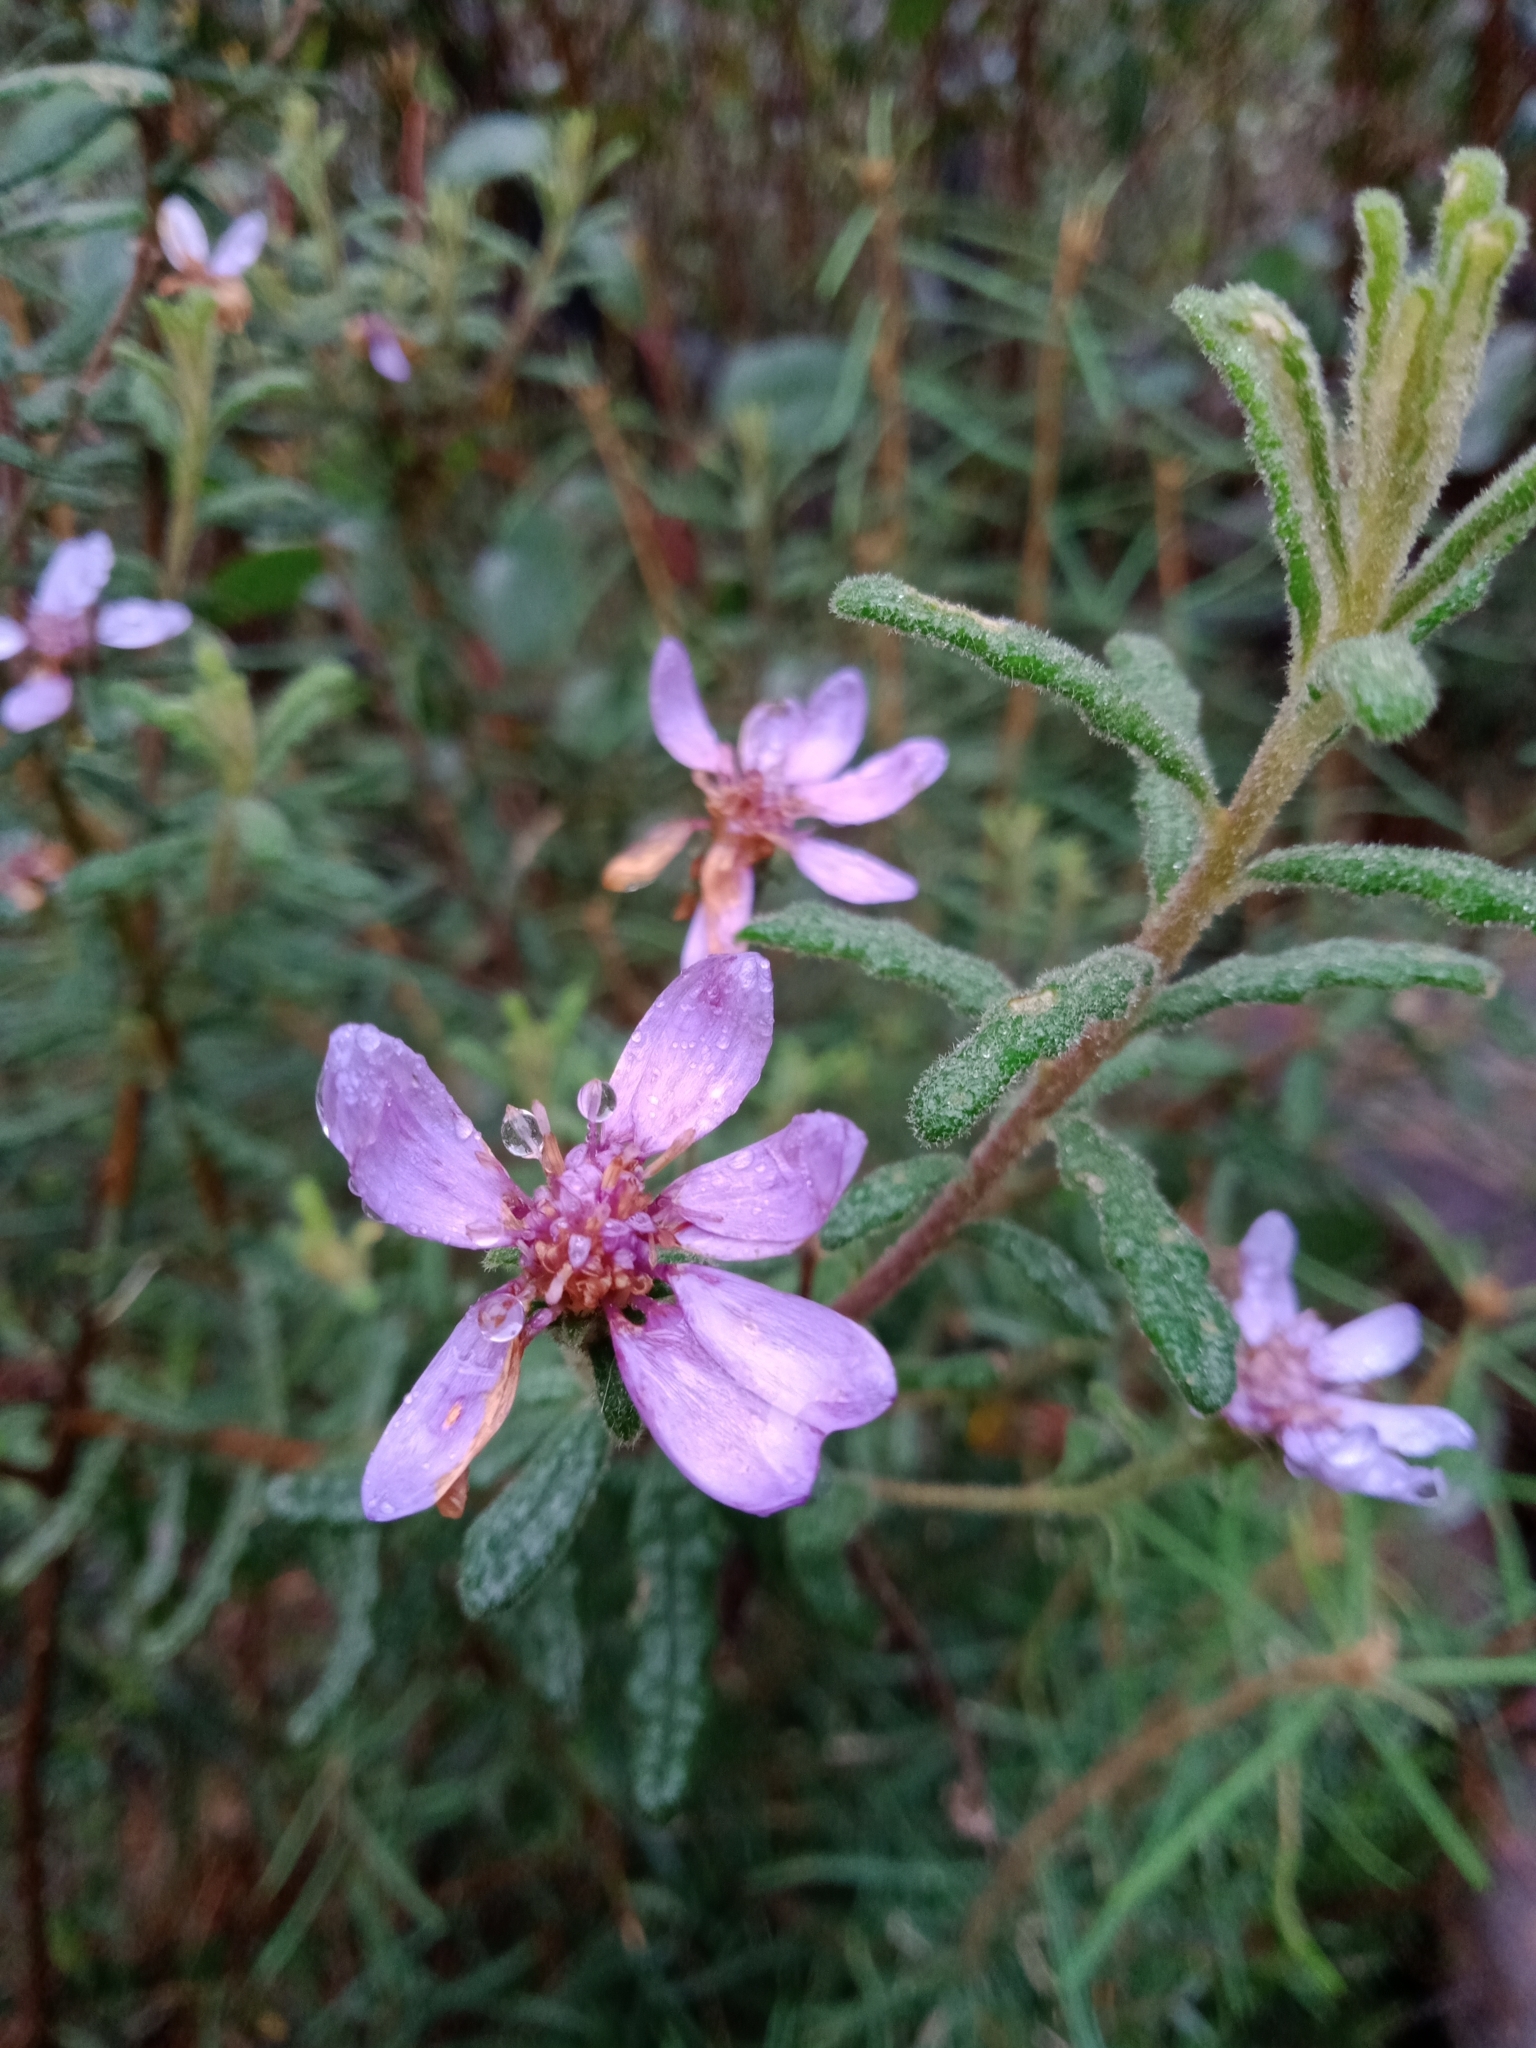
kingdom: Plantae
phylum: Tracheophyta
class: Magnoliopsida
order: Asterales
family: Asteraceae
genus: Olearia
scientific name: Olearia asterotricha
